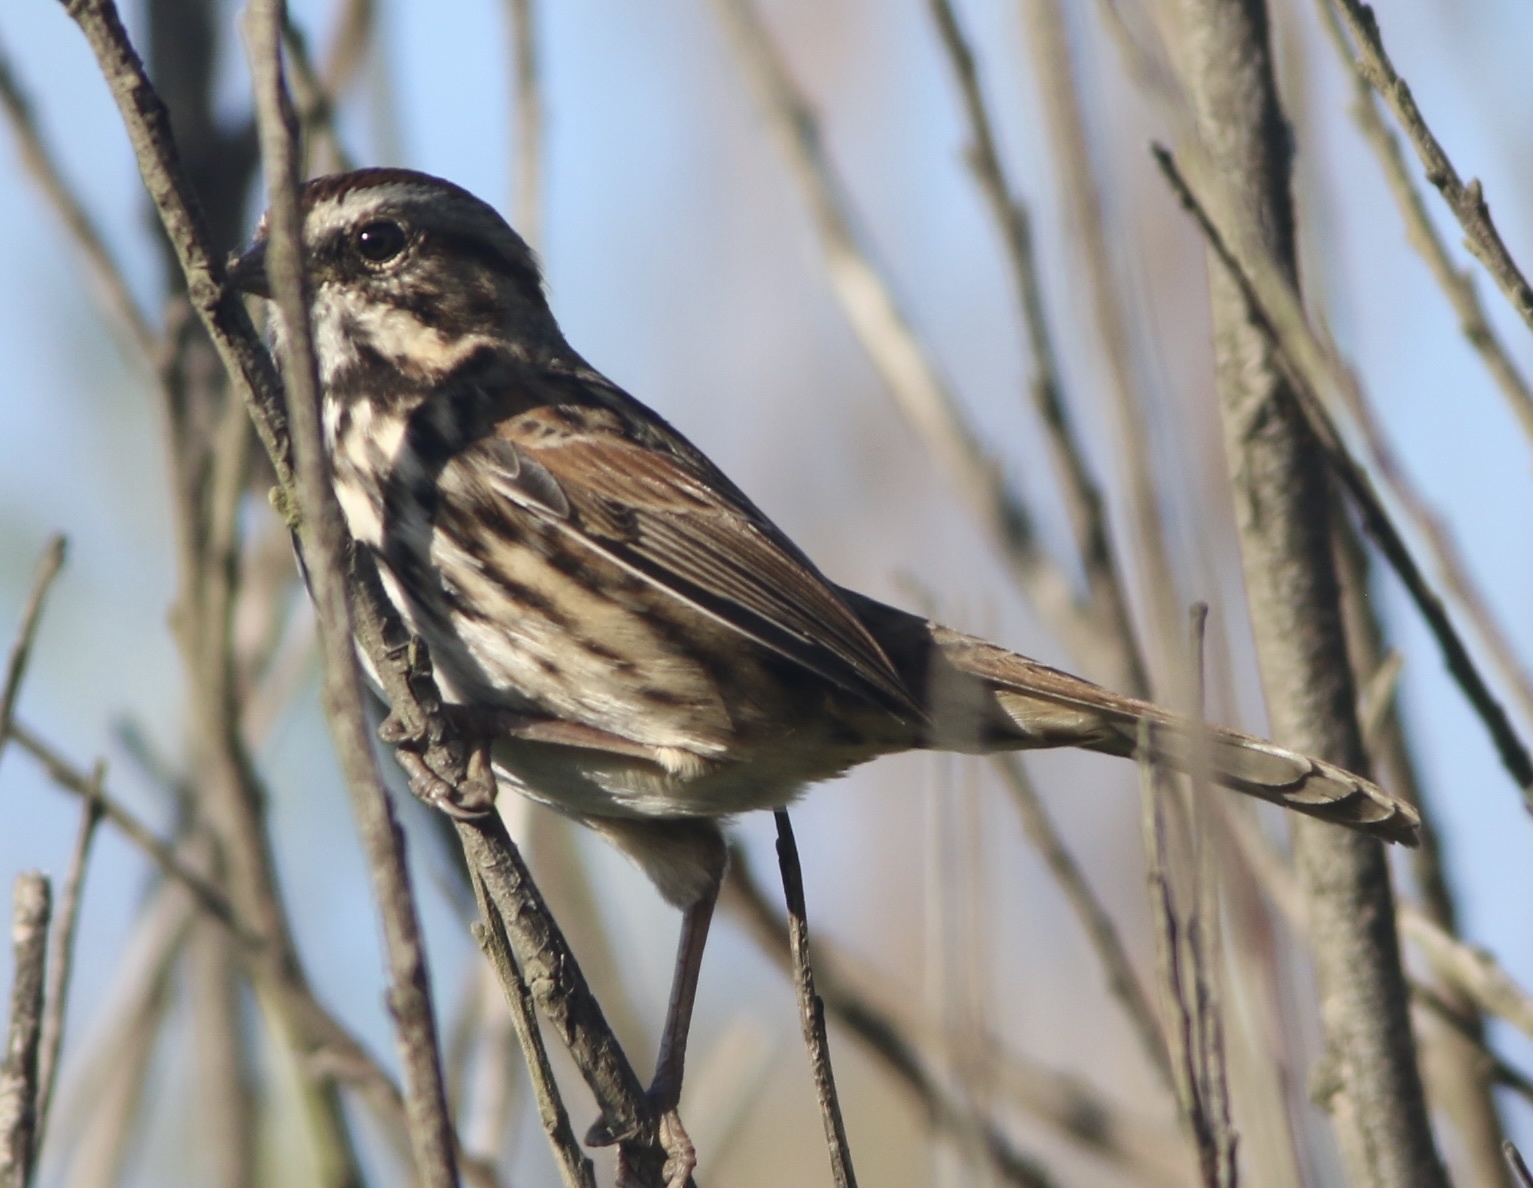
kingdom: Animalia
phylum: Chordata
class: Aves
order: Passeriformes
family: Passerellidae
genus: Melospiza
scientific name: Melospiza melodia
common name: Song sparrow
